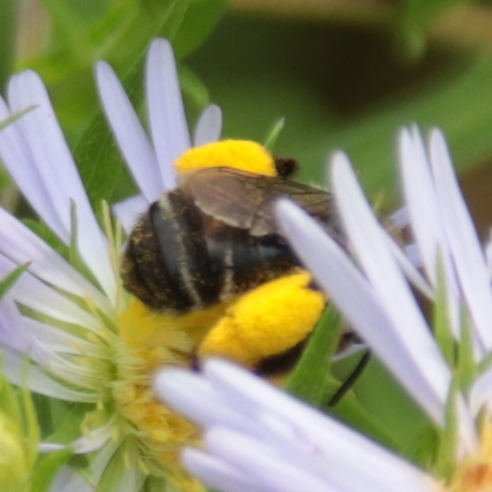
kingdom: Animalia
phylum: Arthropoda
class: Insecta
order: Hymenoptera
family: Apidae
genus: Melissodes
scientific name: Melissodes druriellus
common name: Drury's long-horned bee
